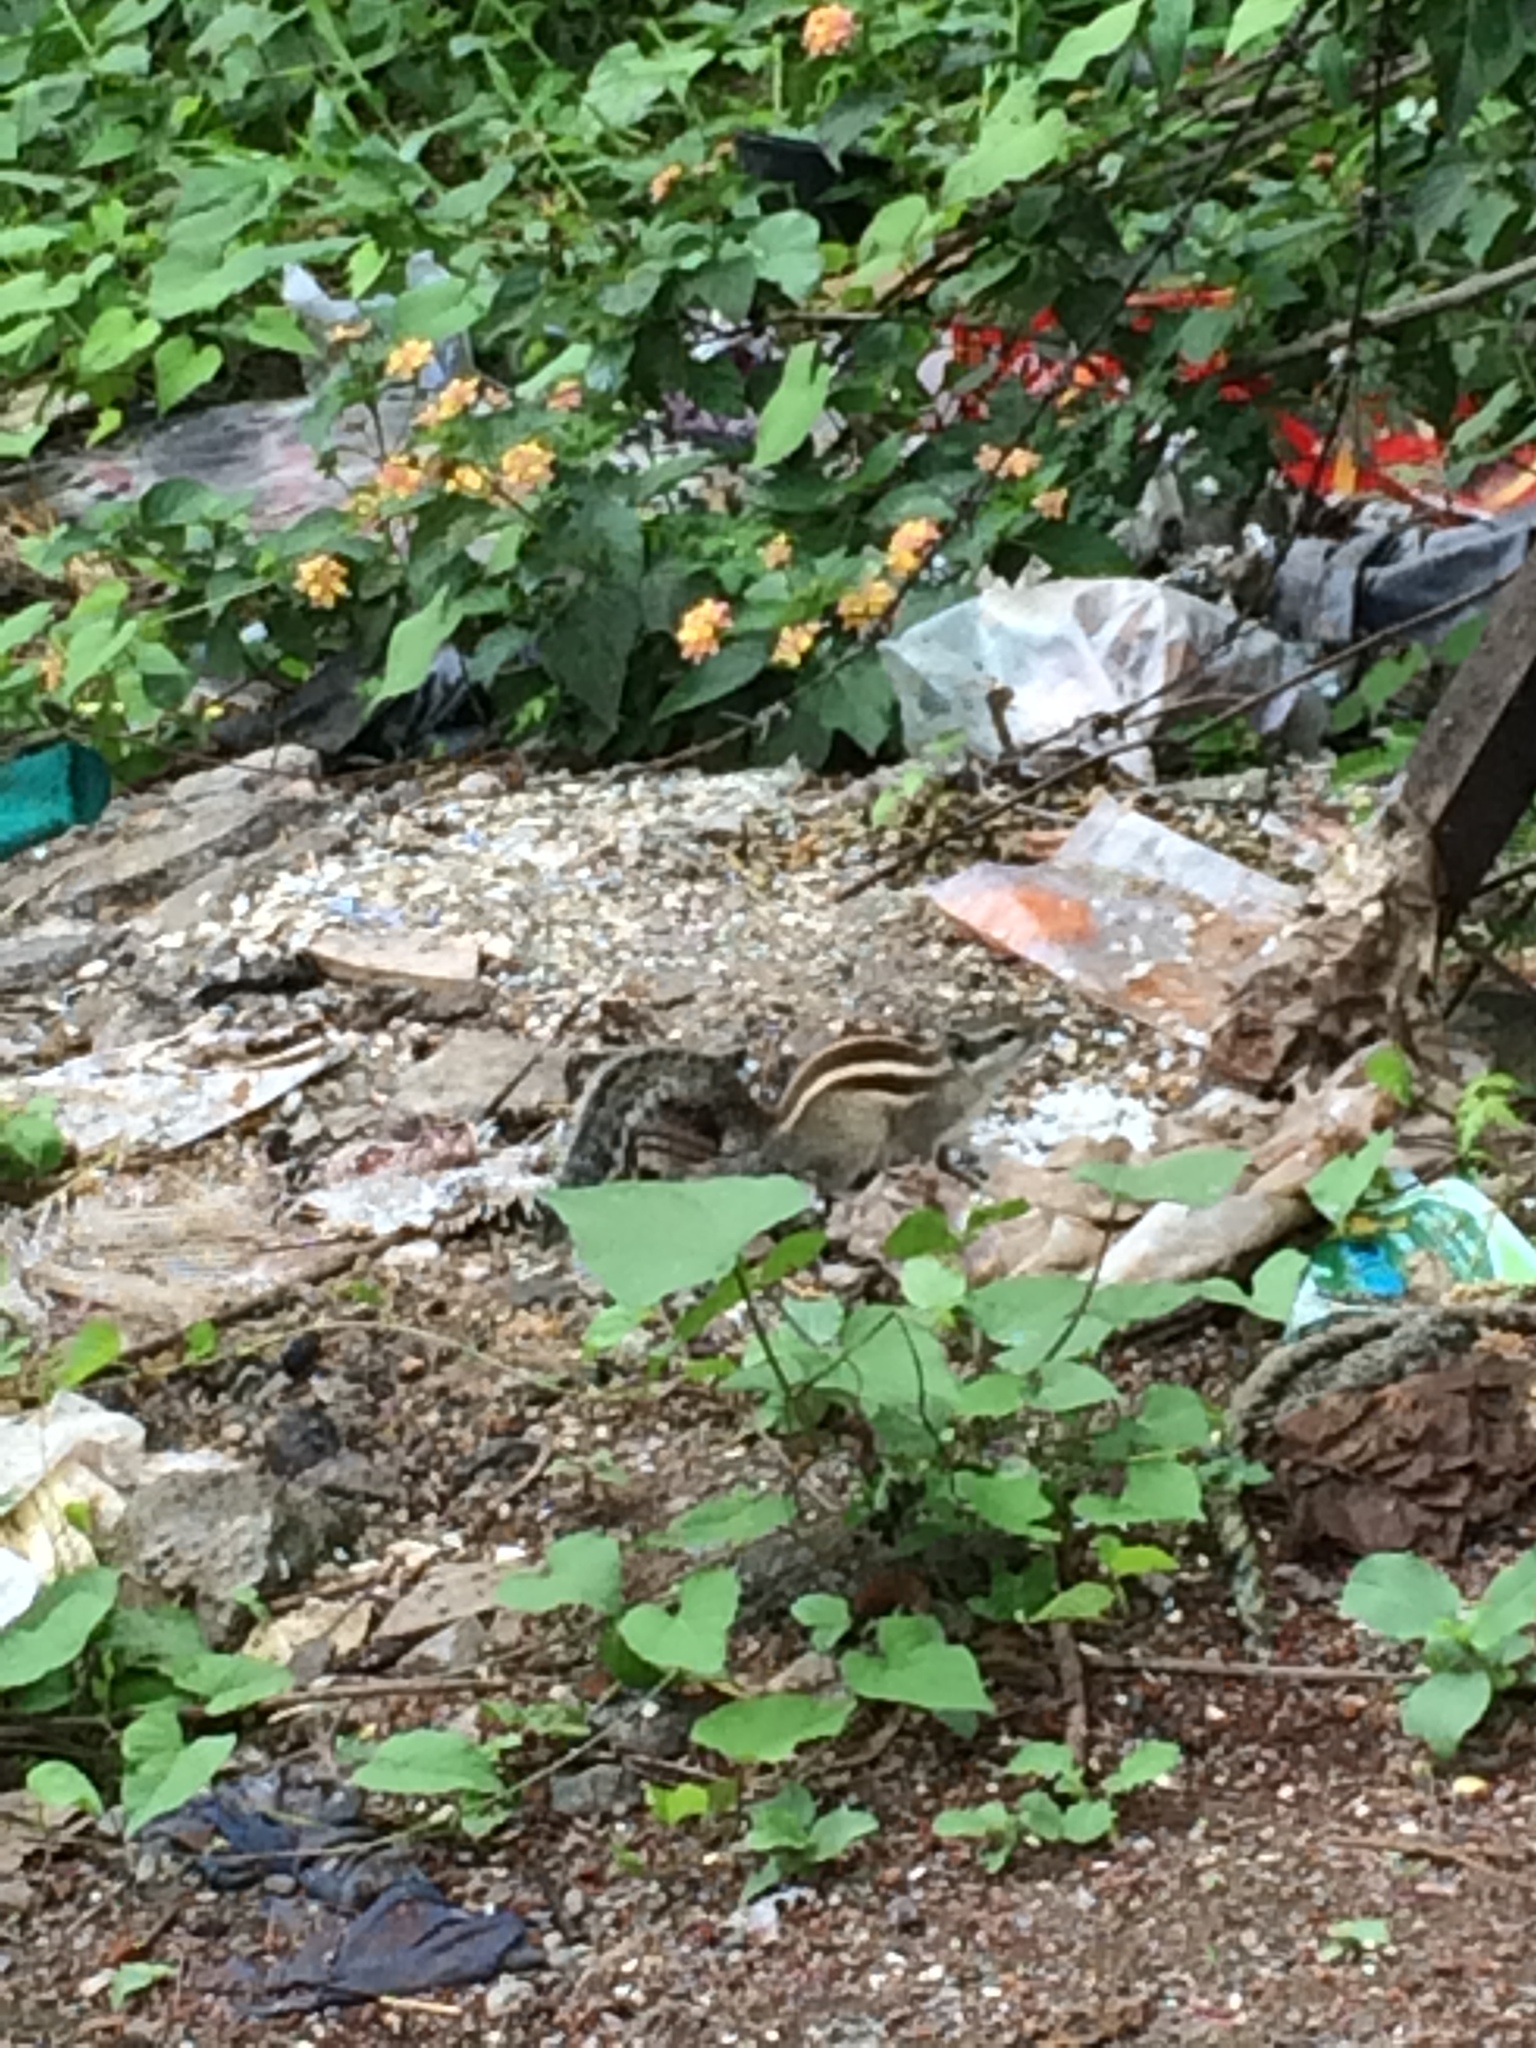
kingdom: Animalia
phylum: Chordata
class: Mammalia
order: Rodentia
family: Sciuridae
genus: Funambulus
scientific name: Funambulus pennantii
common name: Northern palm squirrel
